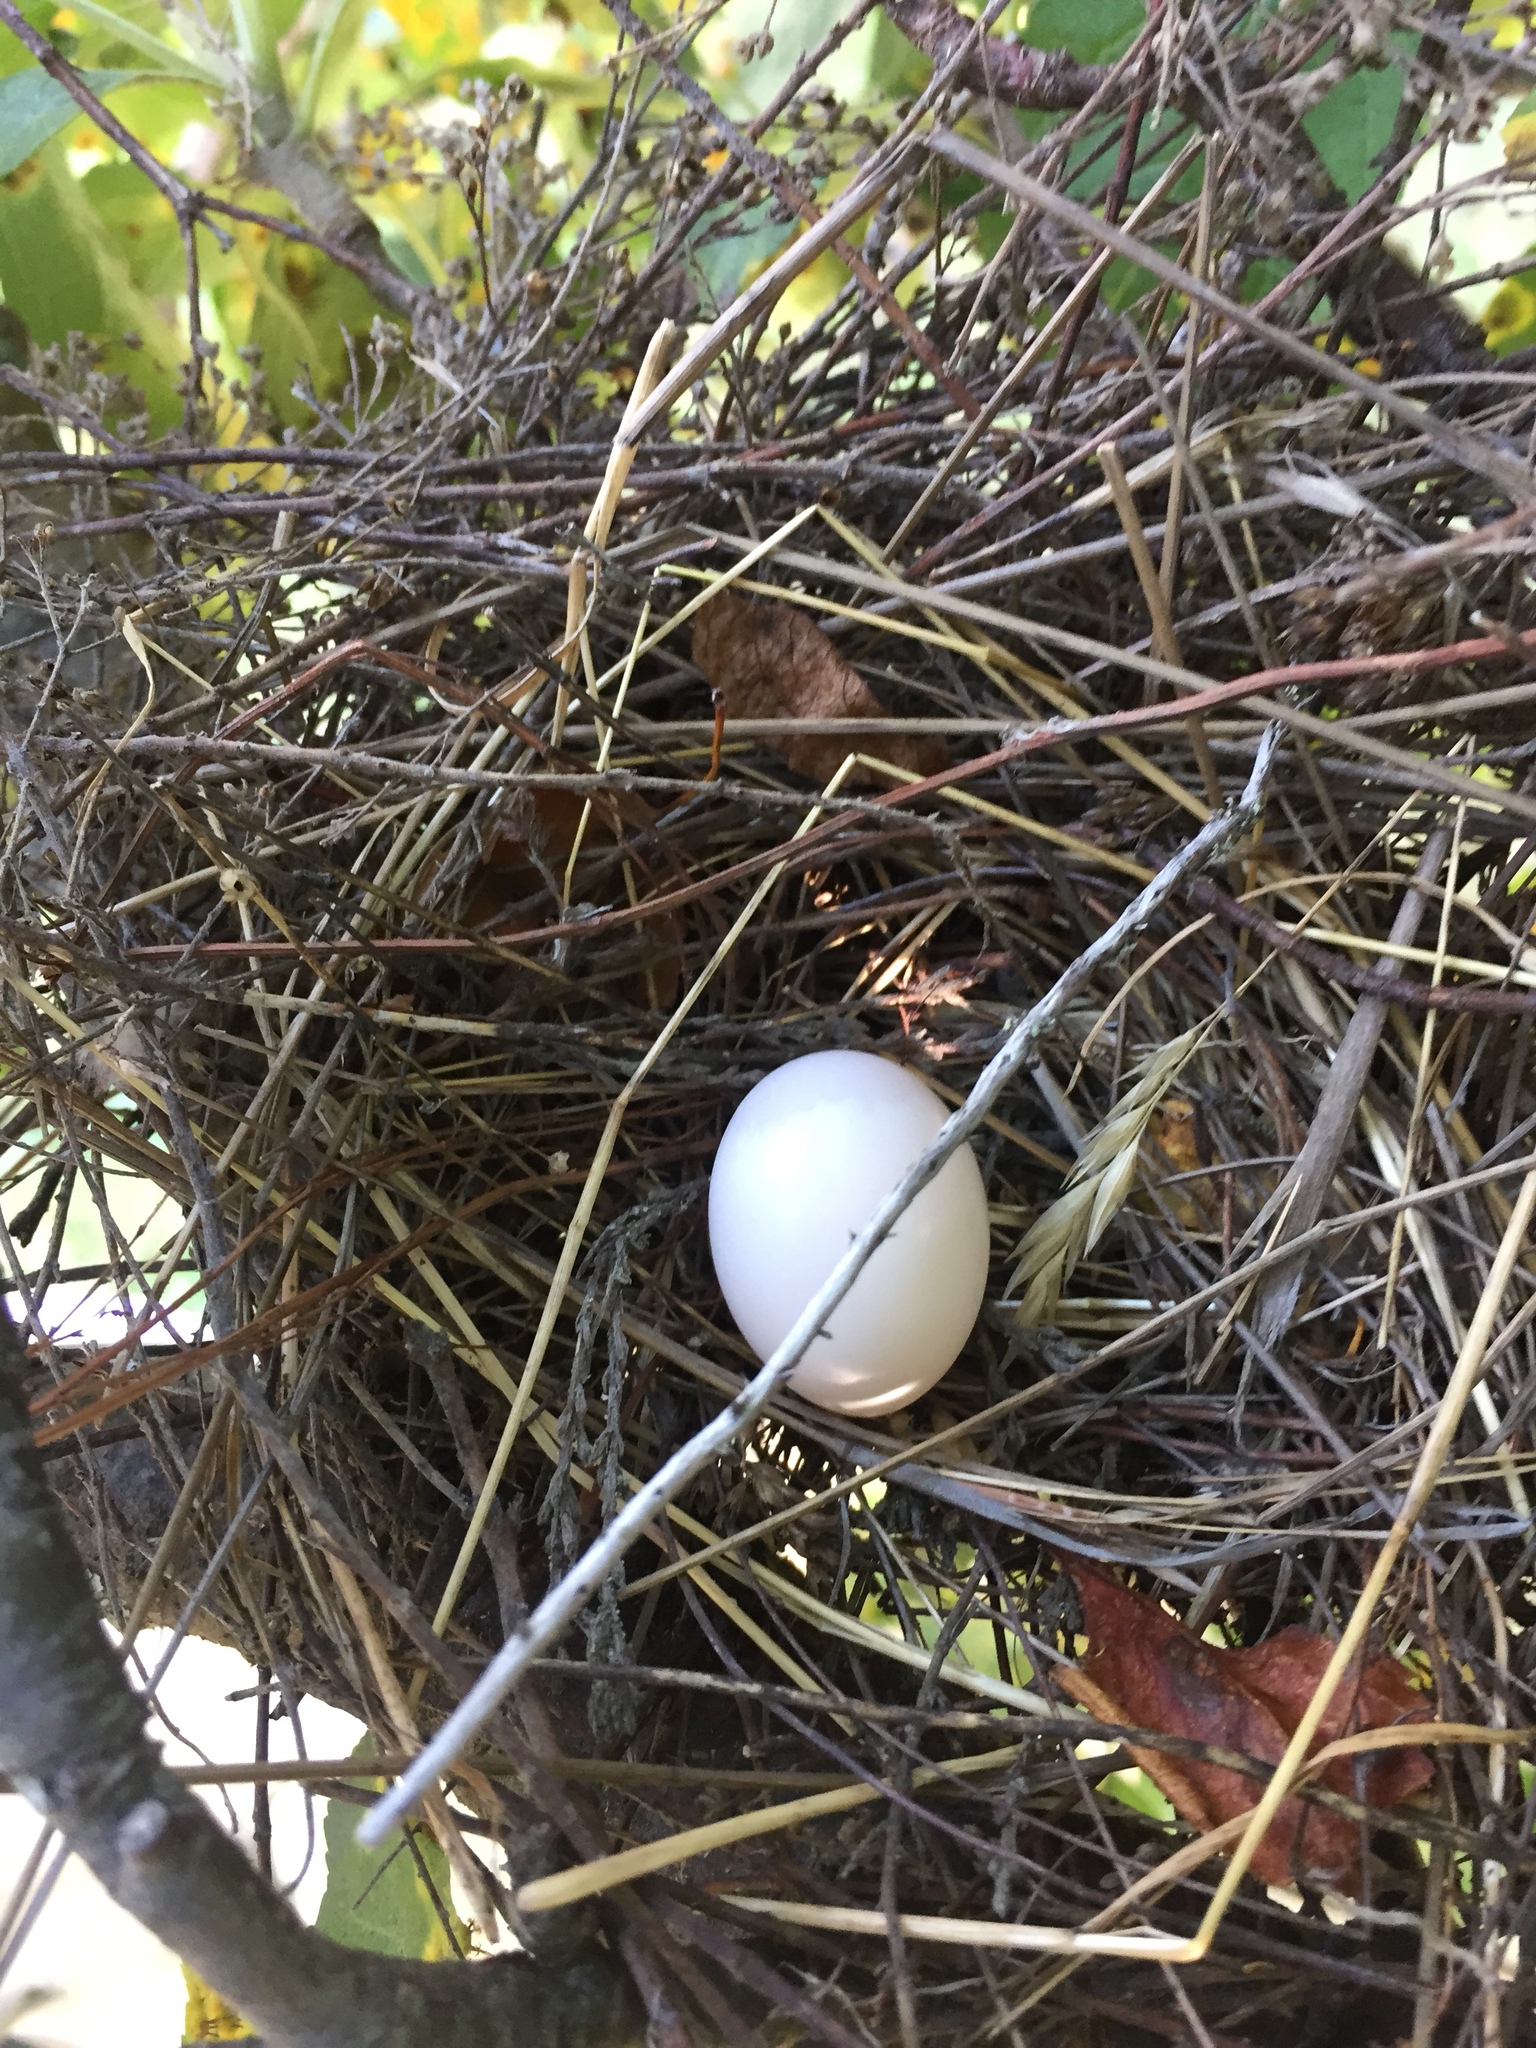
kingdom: Animalia
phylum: Chordata
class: Aves
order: Columbiformes
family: Columbidae
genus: Zenaida
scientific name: Zenaida macroura
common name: Mourning dove
